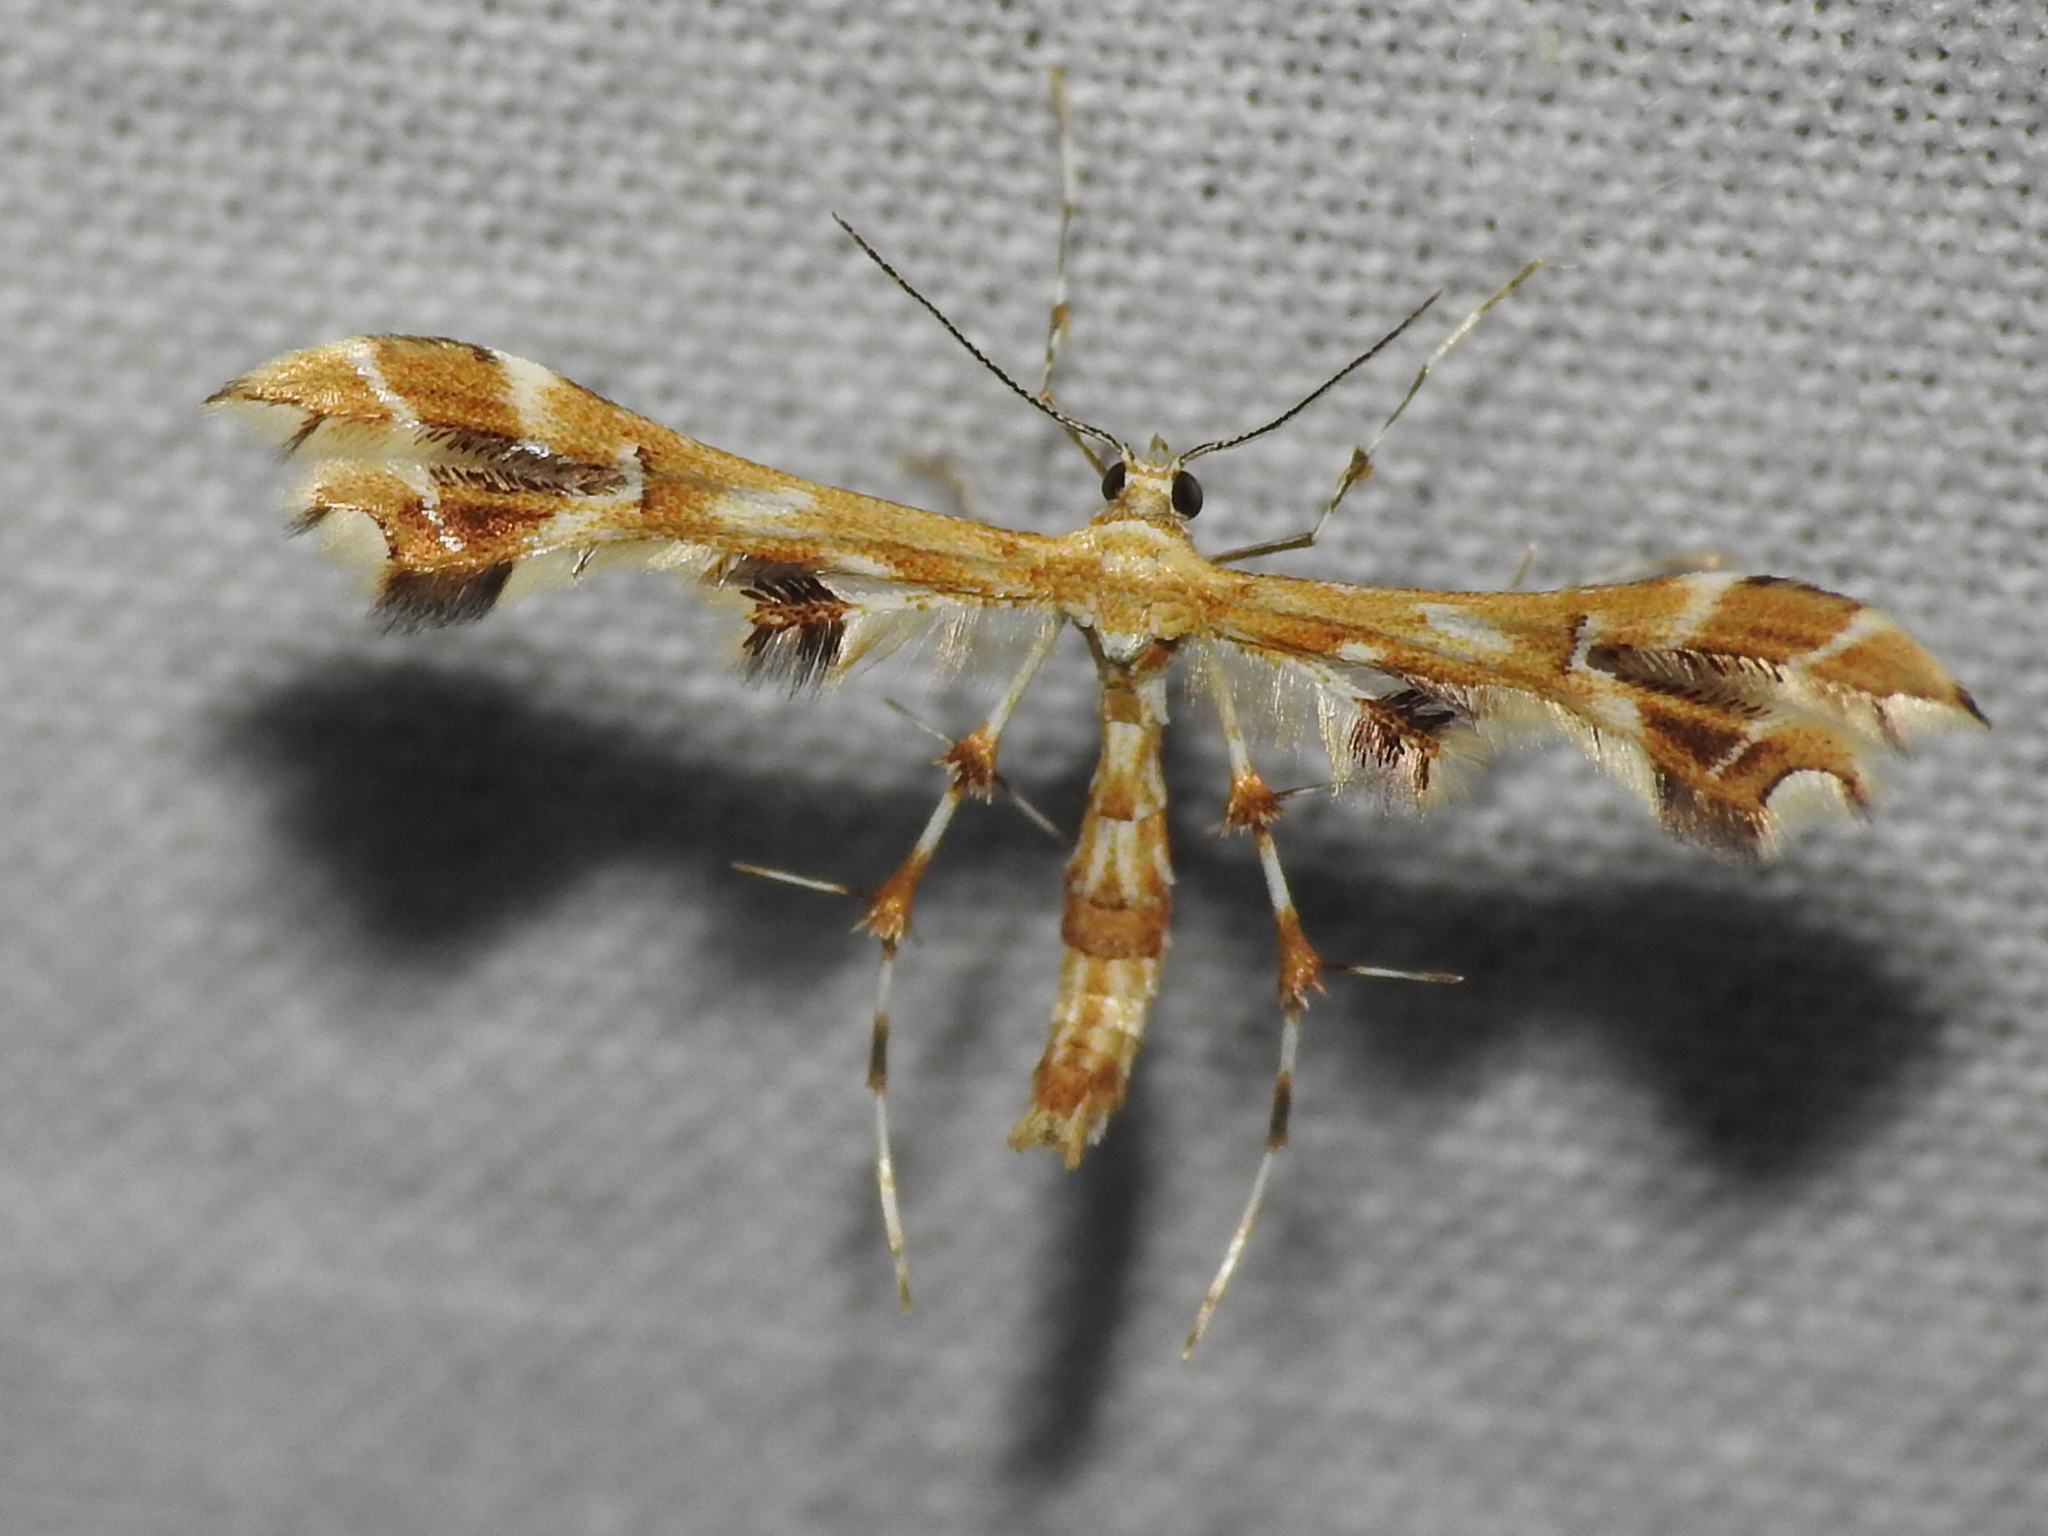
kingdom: Animalia
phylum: Arthropoda
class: Insecta
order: Lepidoptera
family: Pterophoridae
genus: Geina
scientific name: Geina periscelidactylus
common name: Grape plume moth
